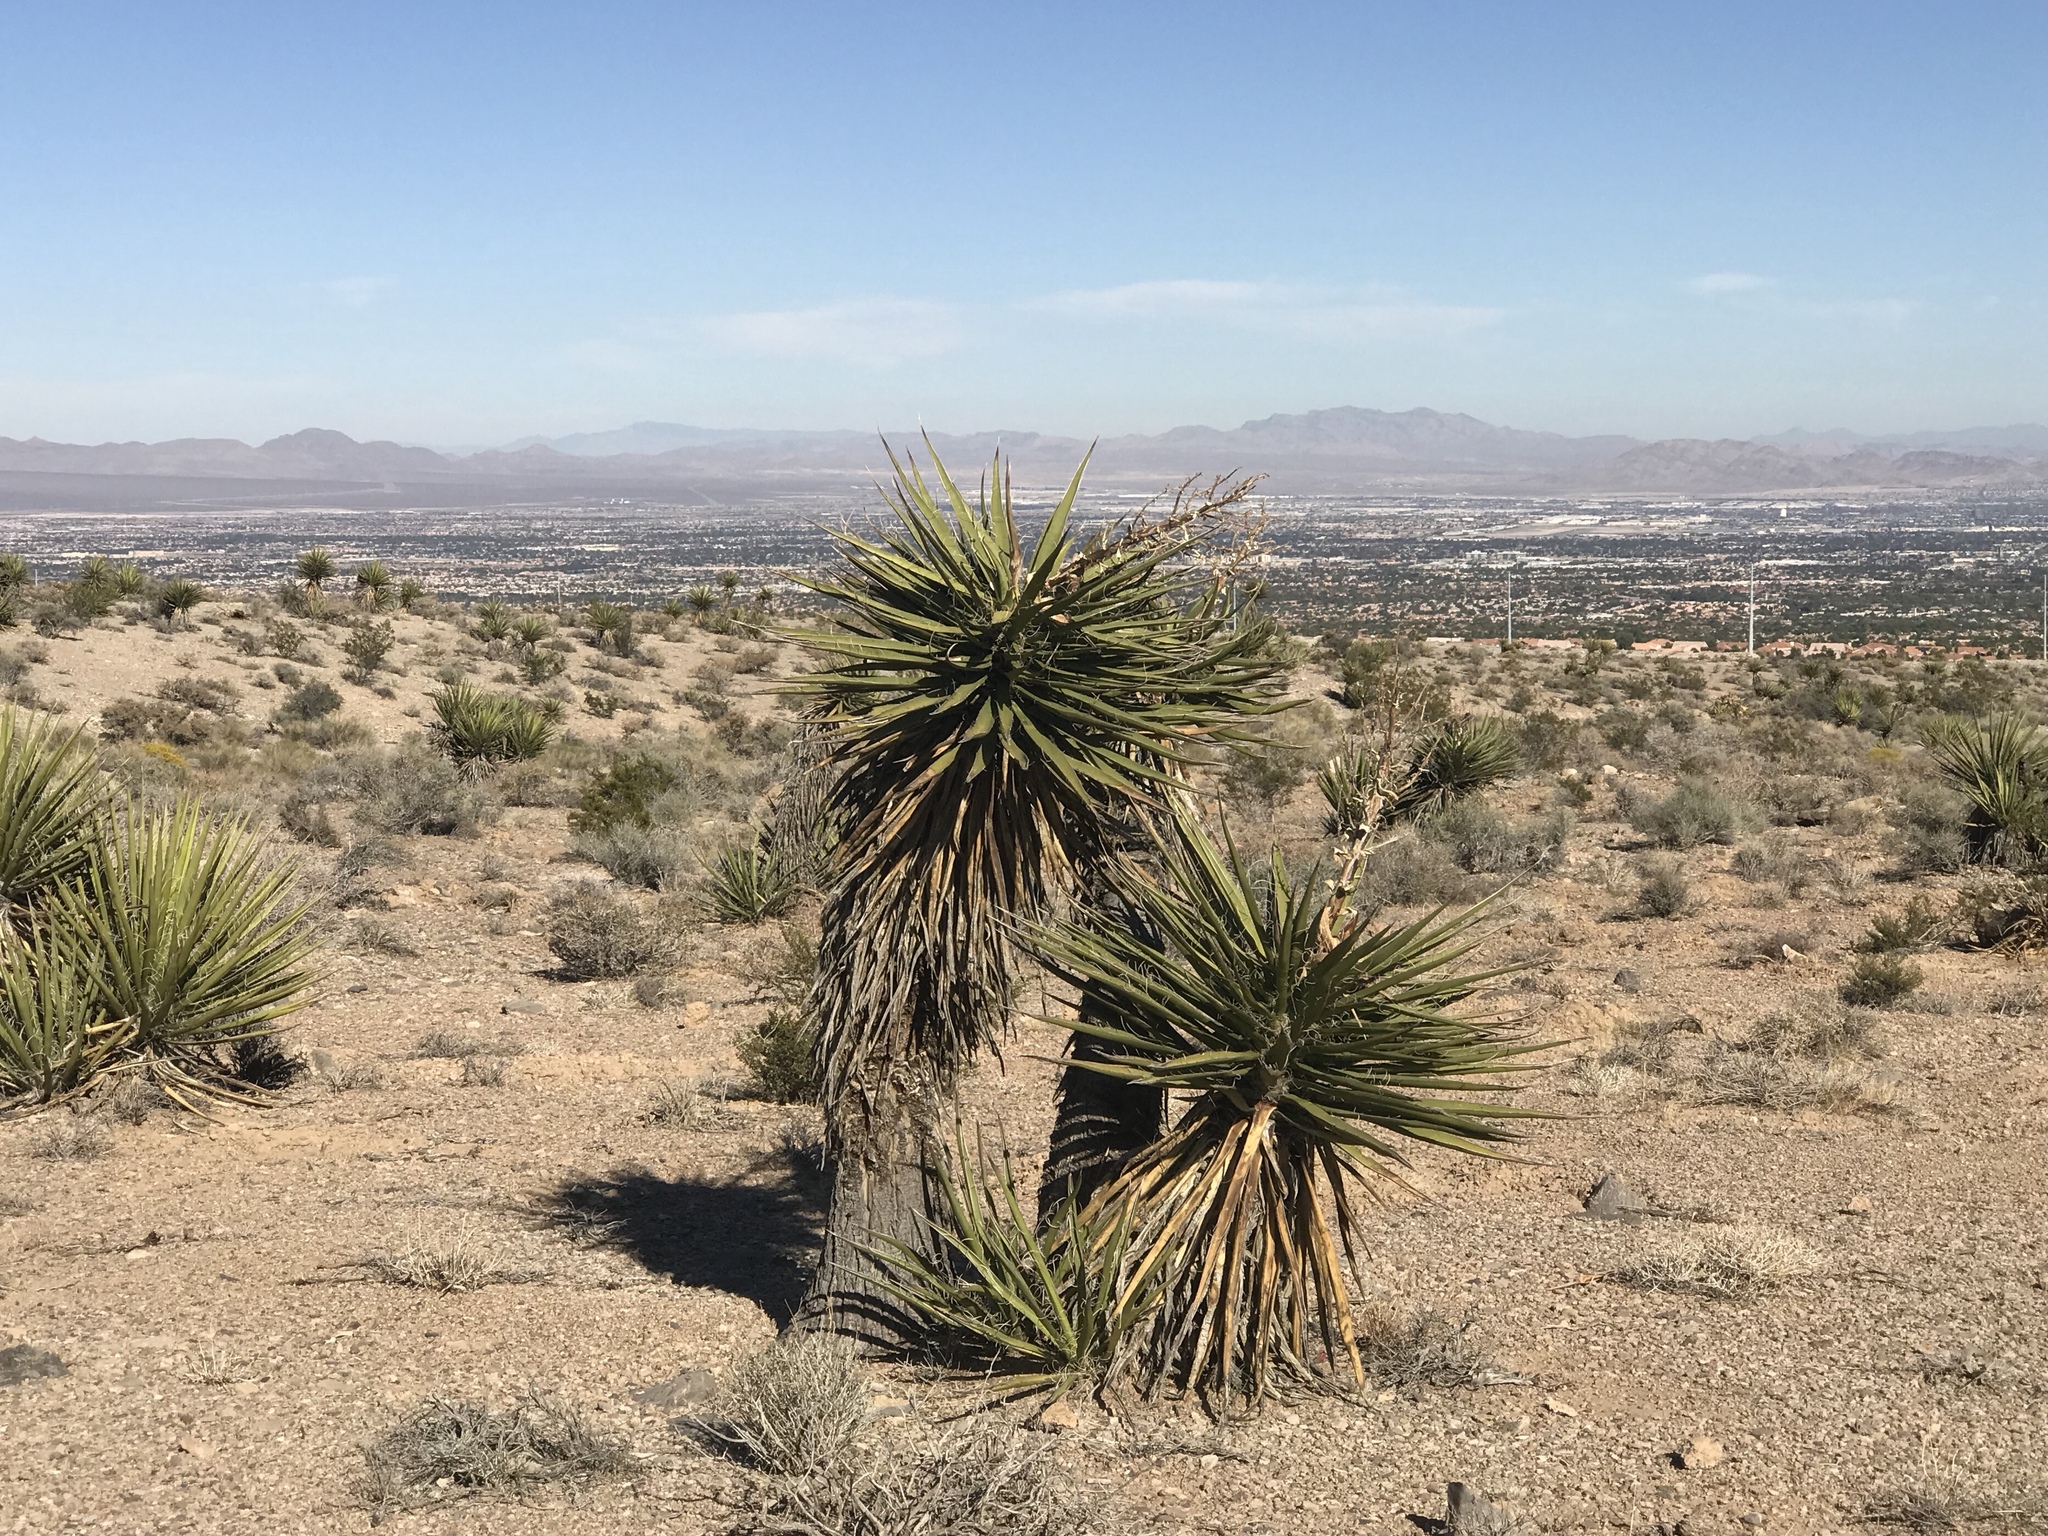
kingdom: Plantae
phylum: Tracheophyta
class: Liliopsida
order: Asparagales
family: Asparagaceae
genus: Yucca
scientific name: Yucca schidigera
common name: Mojave yucca
